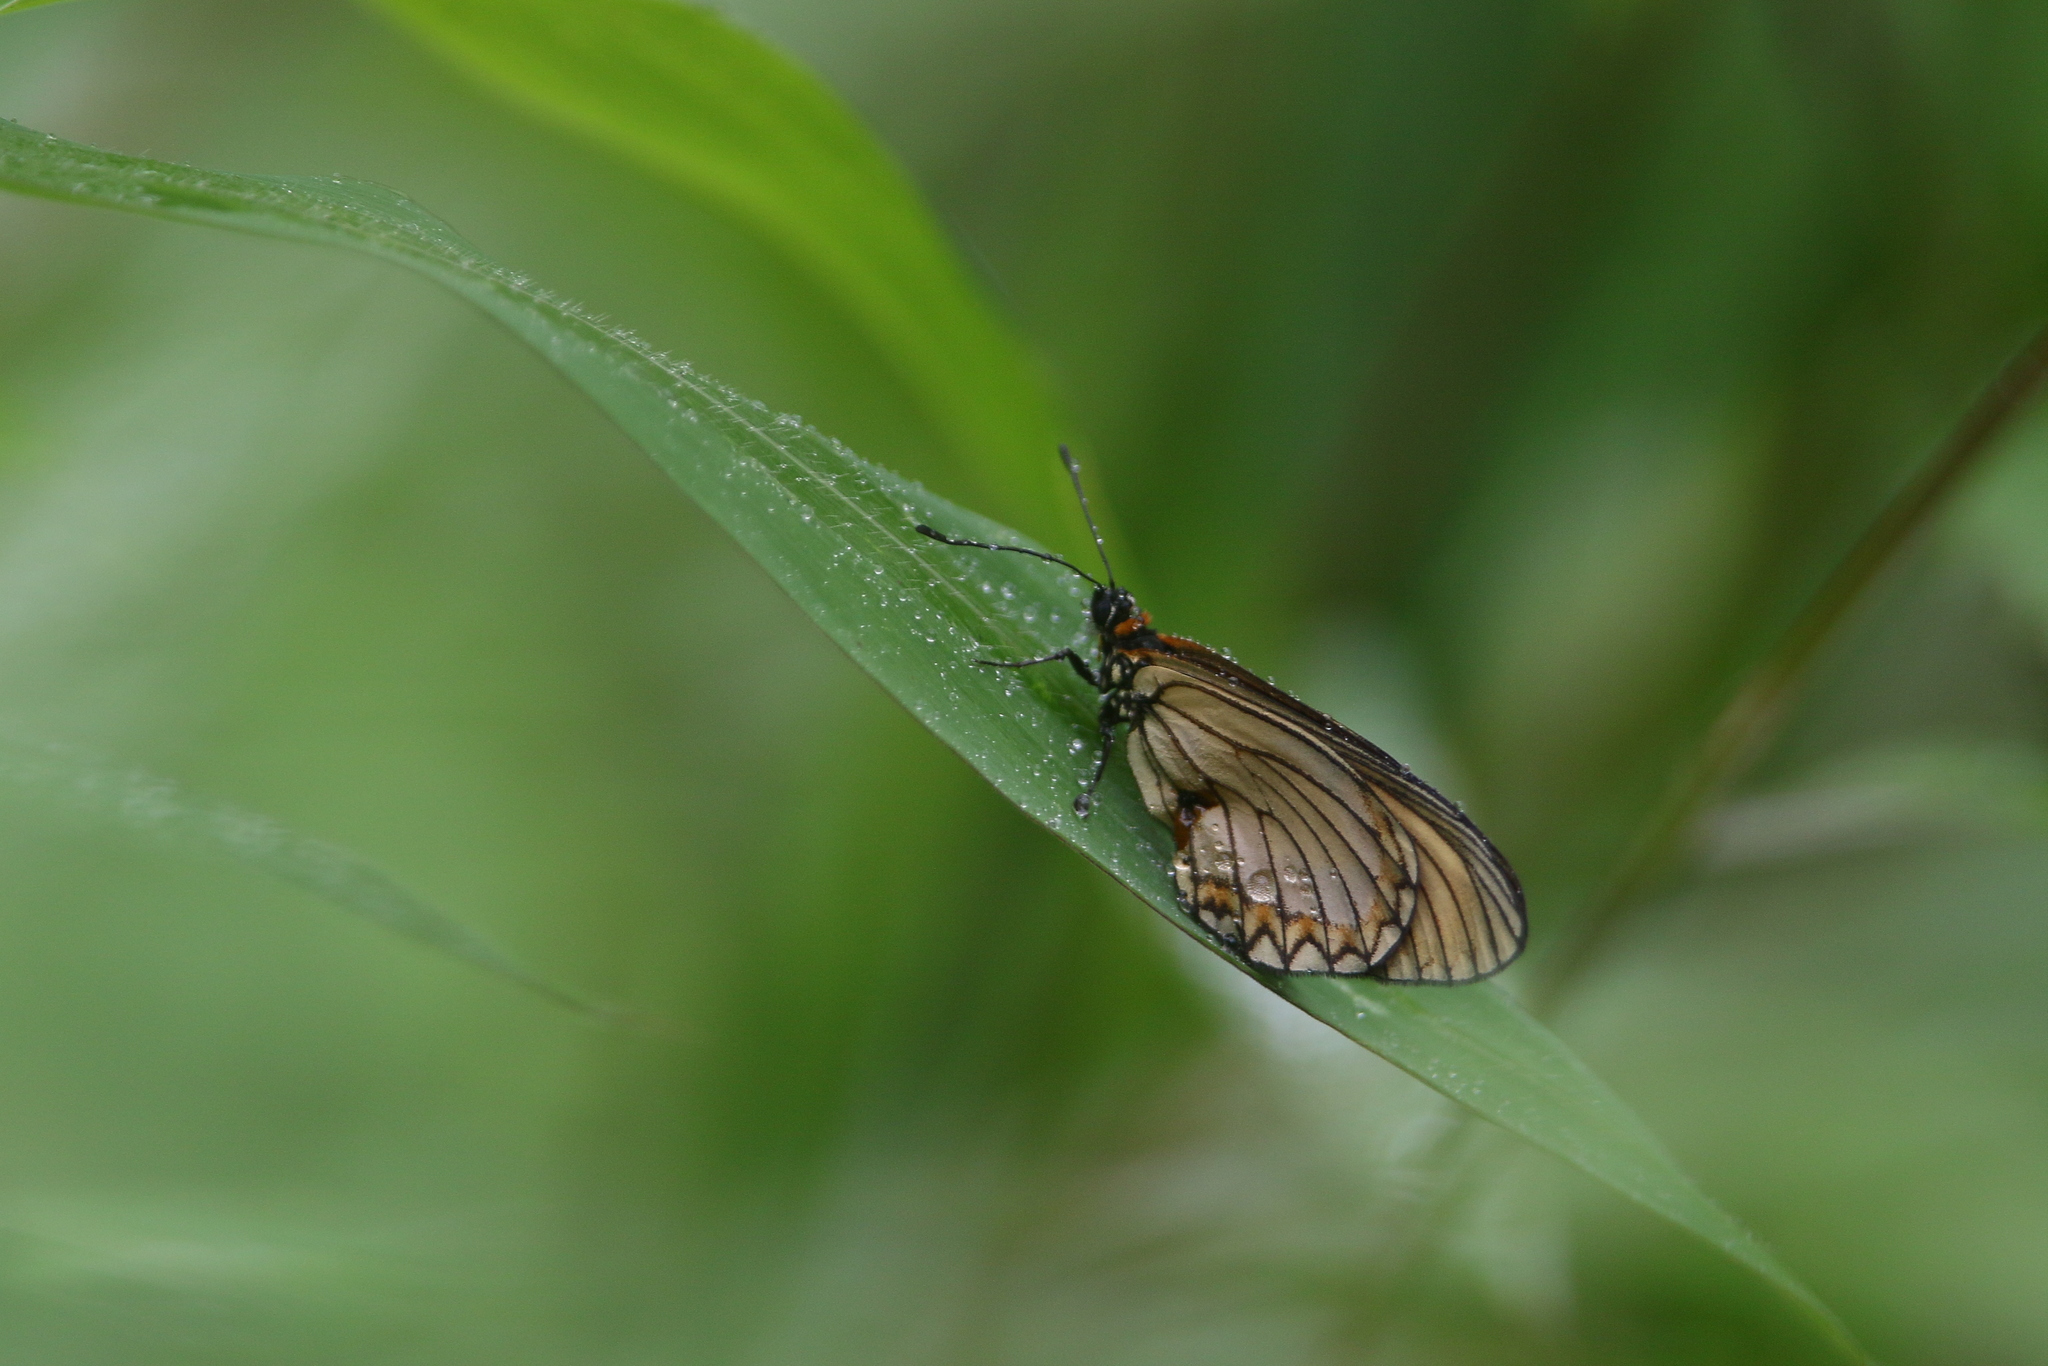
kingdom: Animalia
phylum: Arthropoda
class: Insecta
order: Lepidoptera
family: Nymphalidae
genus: Acraea
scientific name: Acraea Telchinia issoria
